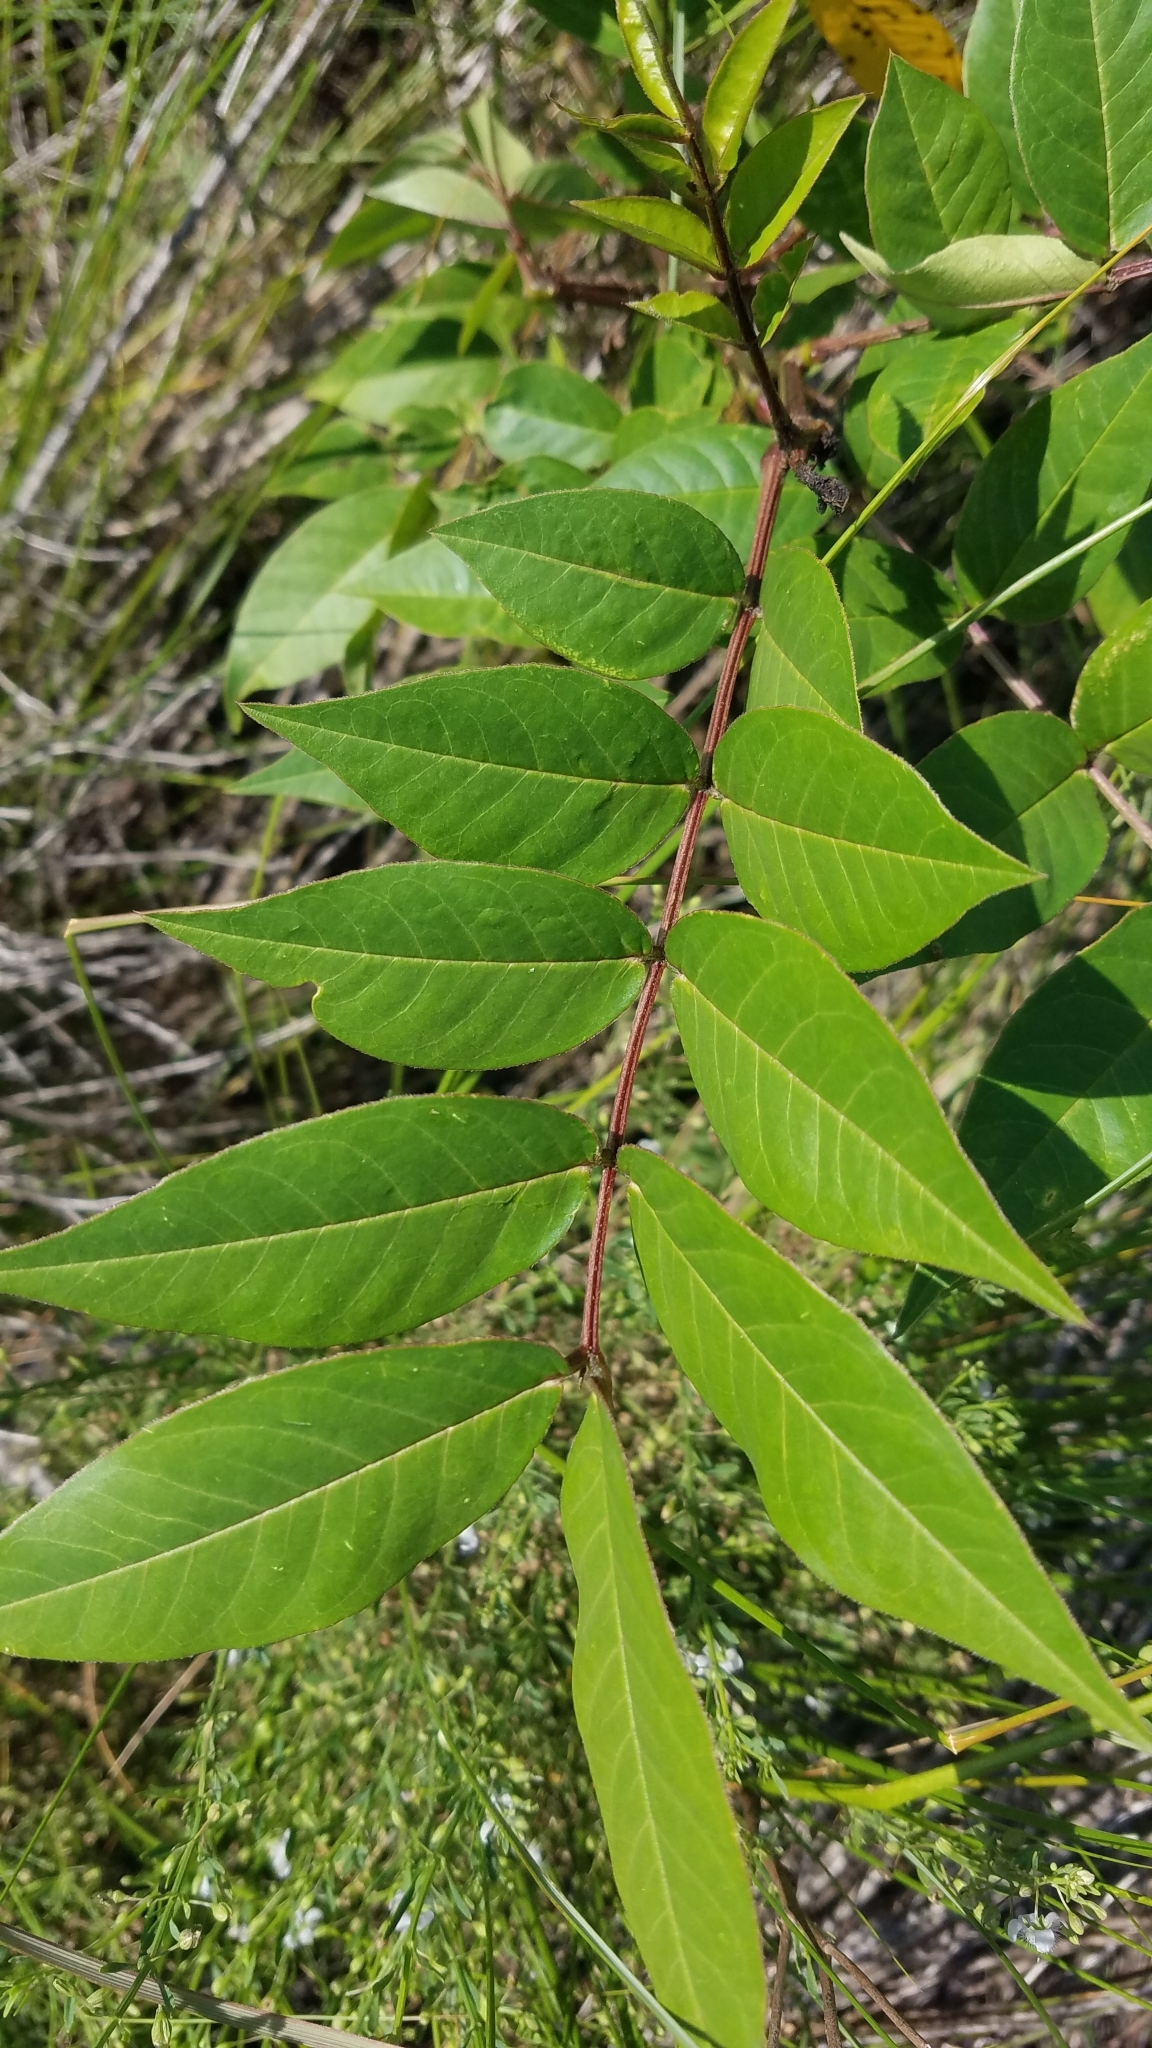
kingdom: Plantae
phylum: Tracheophyta
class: Magnoliopsida
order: Fabales
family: Fabaceae
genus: Senna
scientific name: Senna occidentalis
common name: Septicweed
